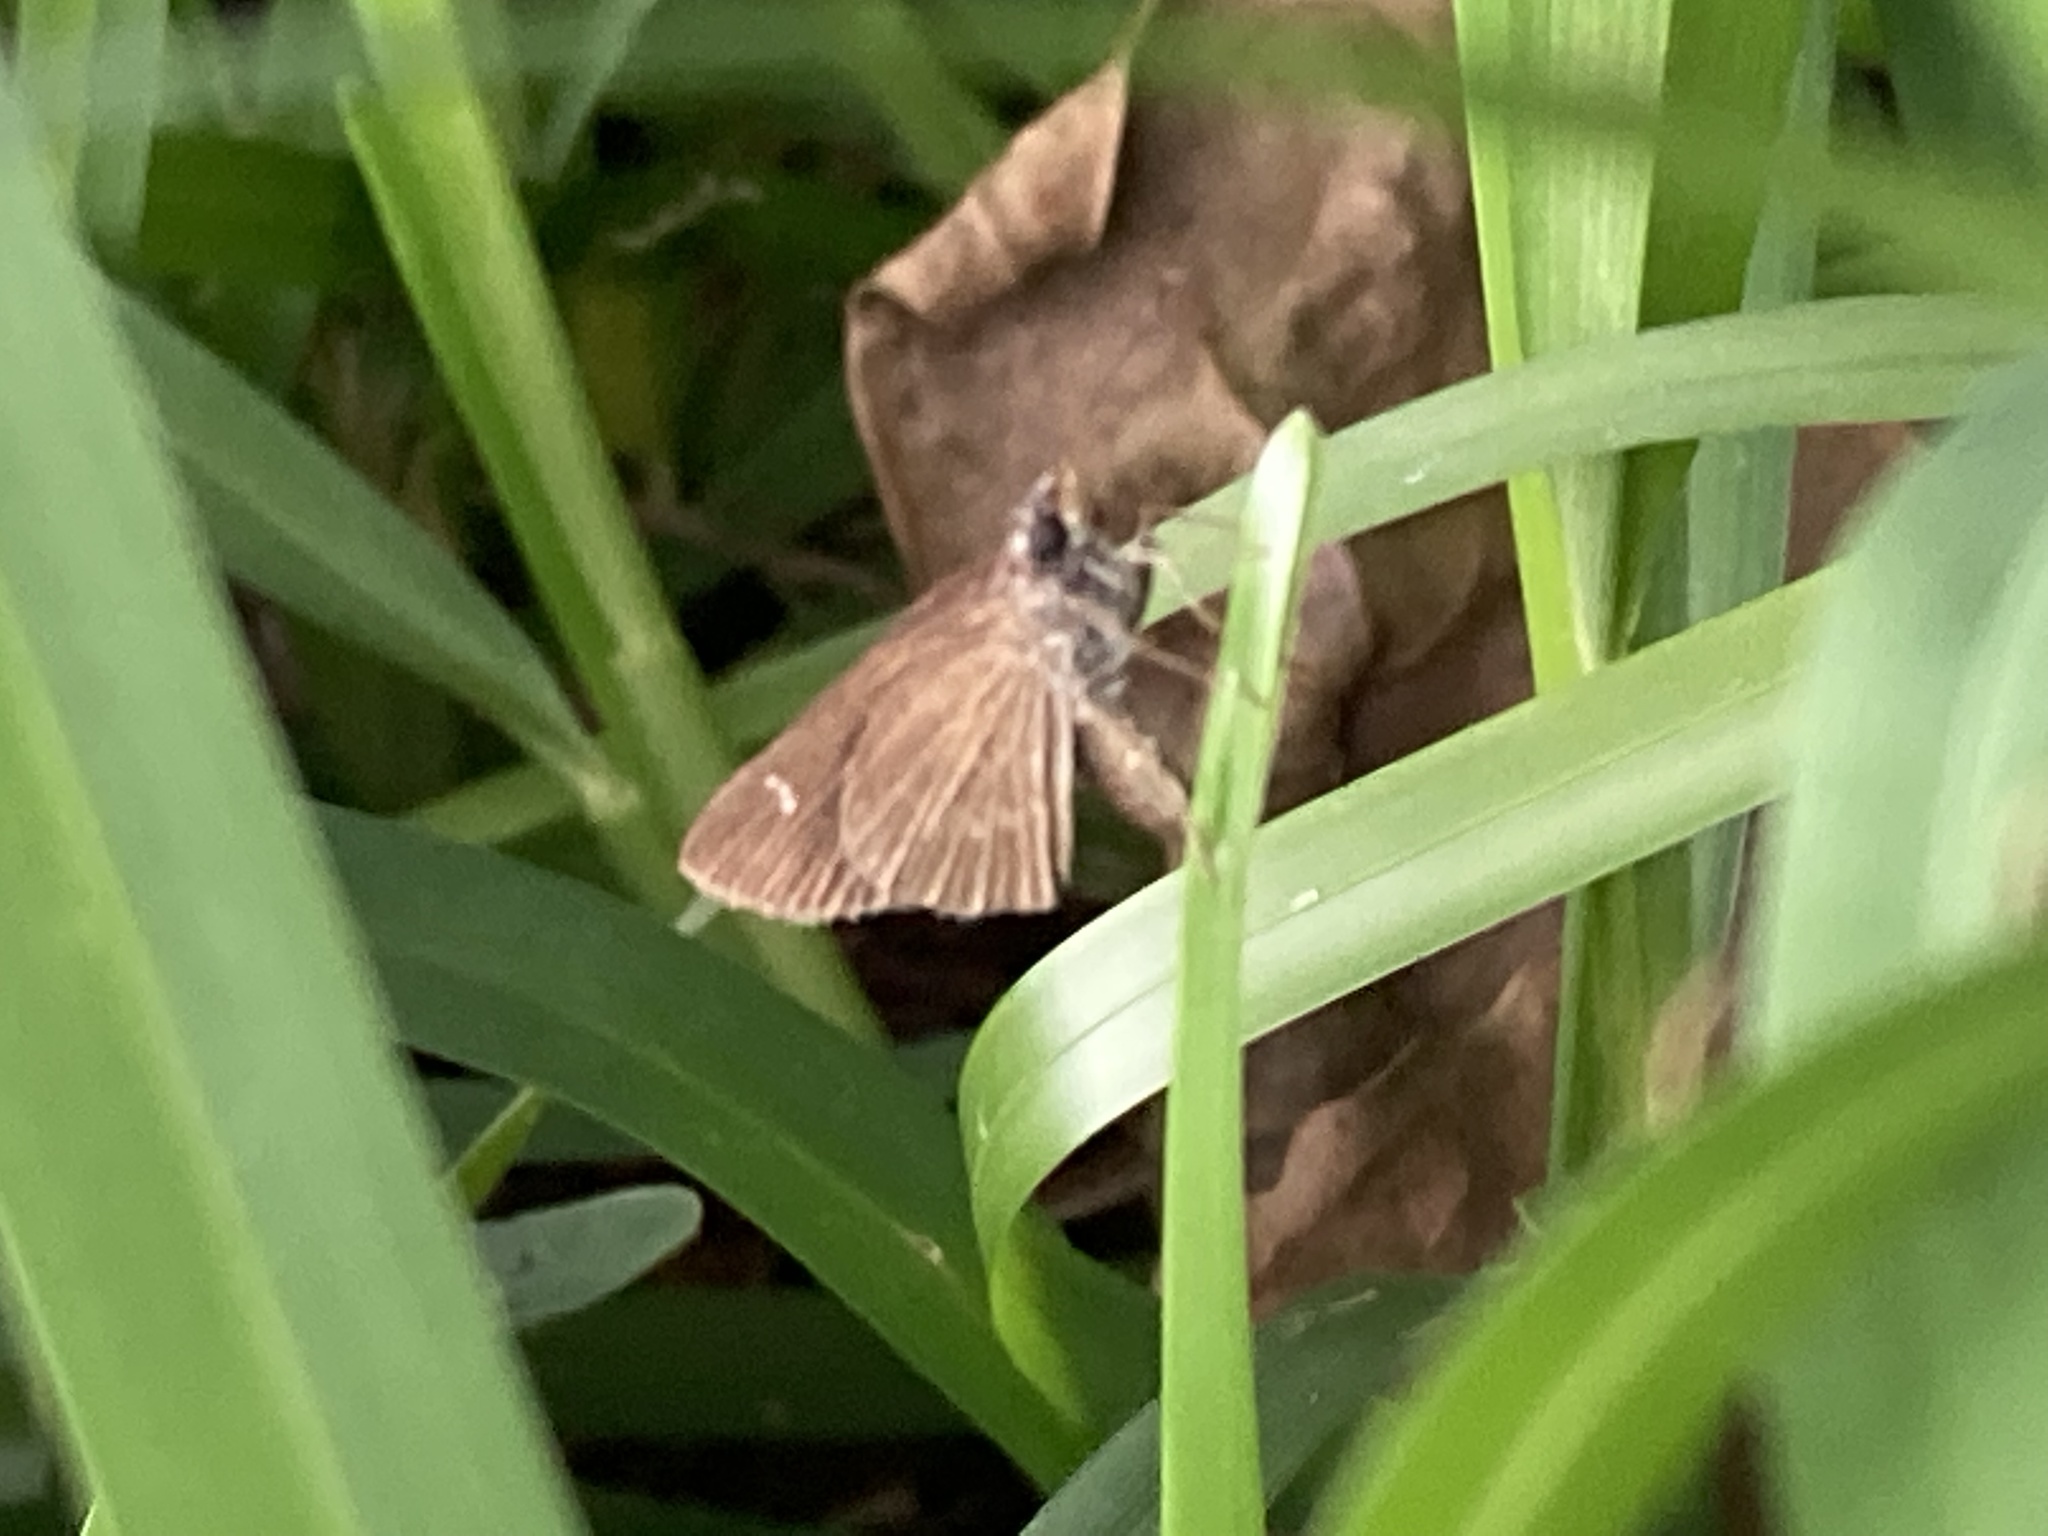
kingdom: Animalia
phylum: Arthropoda
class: Insecta
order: Lepidoptera
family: Hesperiidae
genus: Cymaenes
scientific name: Cymaenes tripunctus
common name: Dingy dotted skipper
